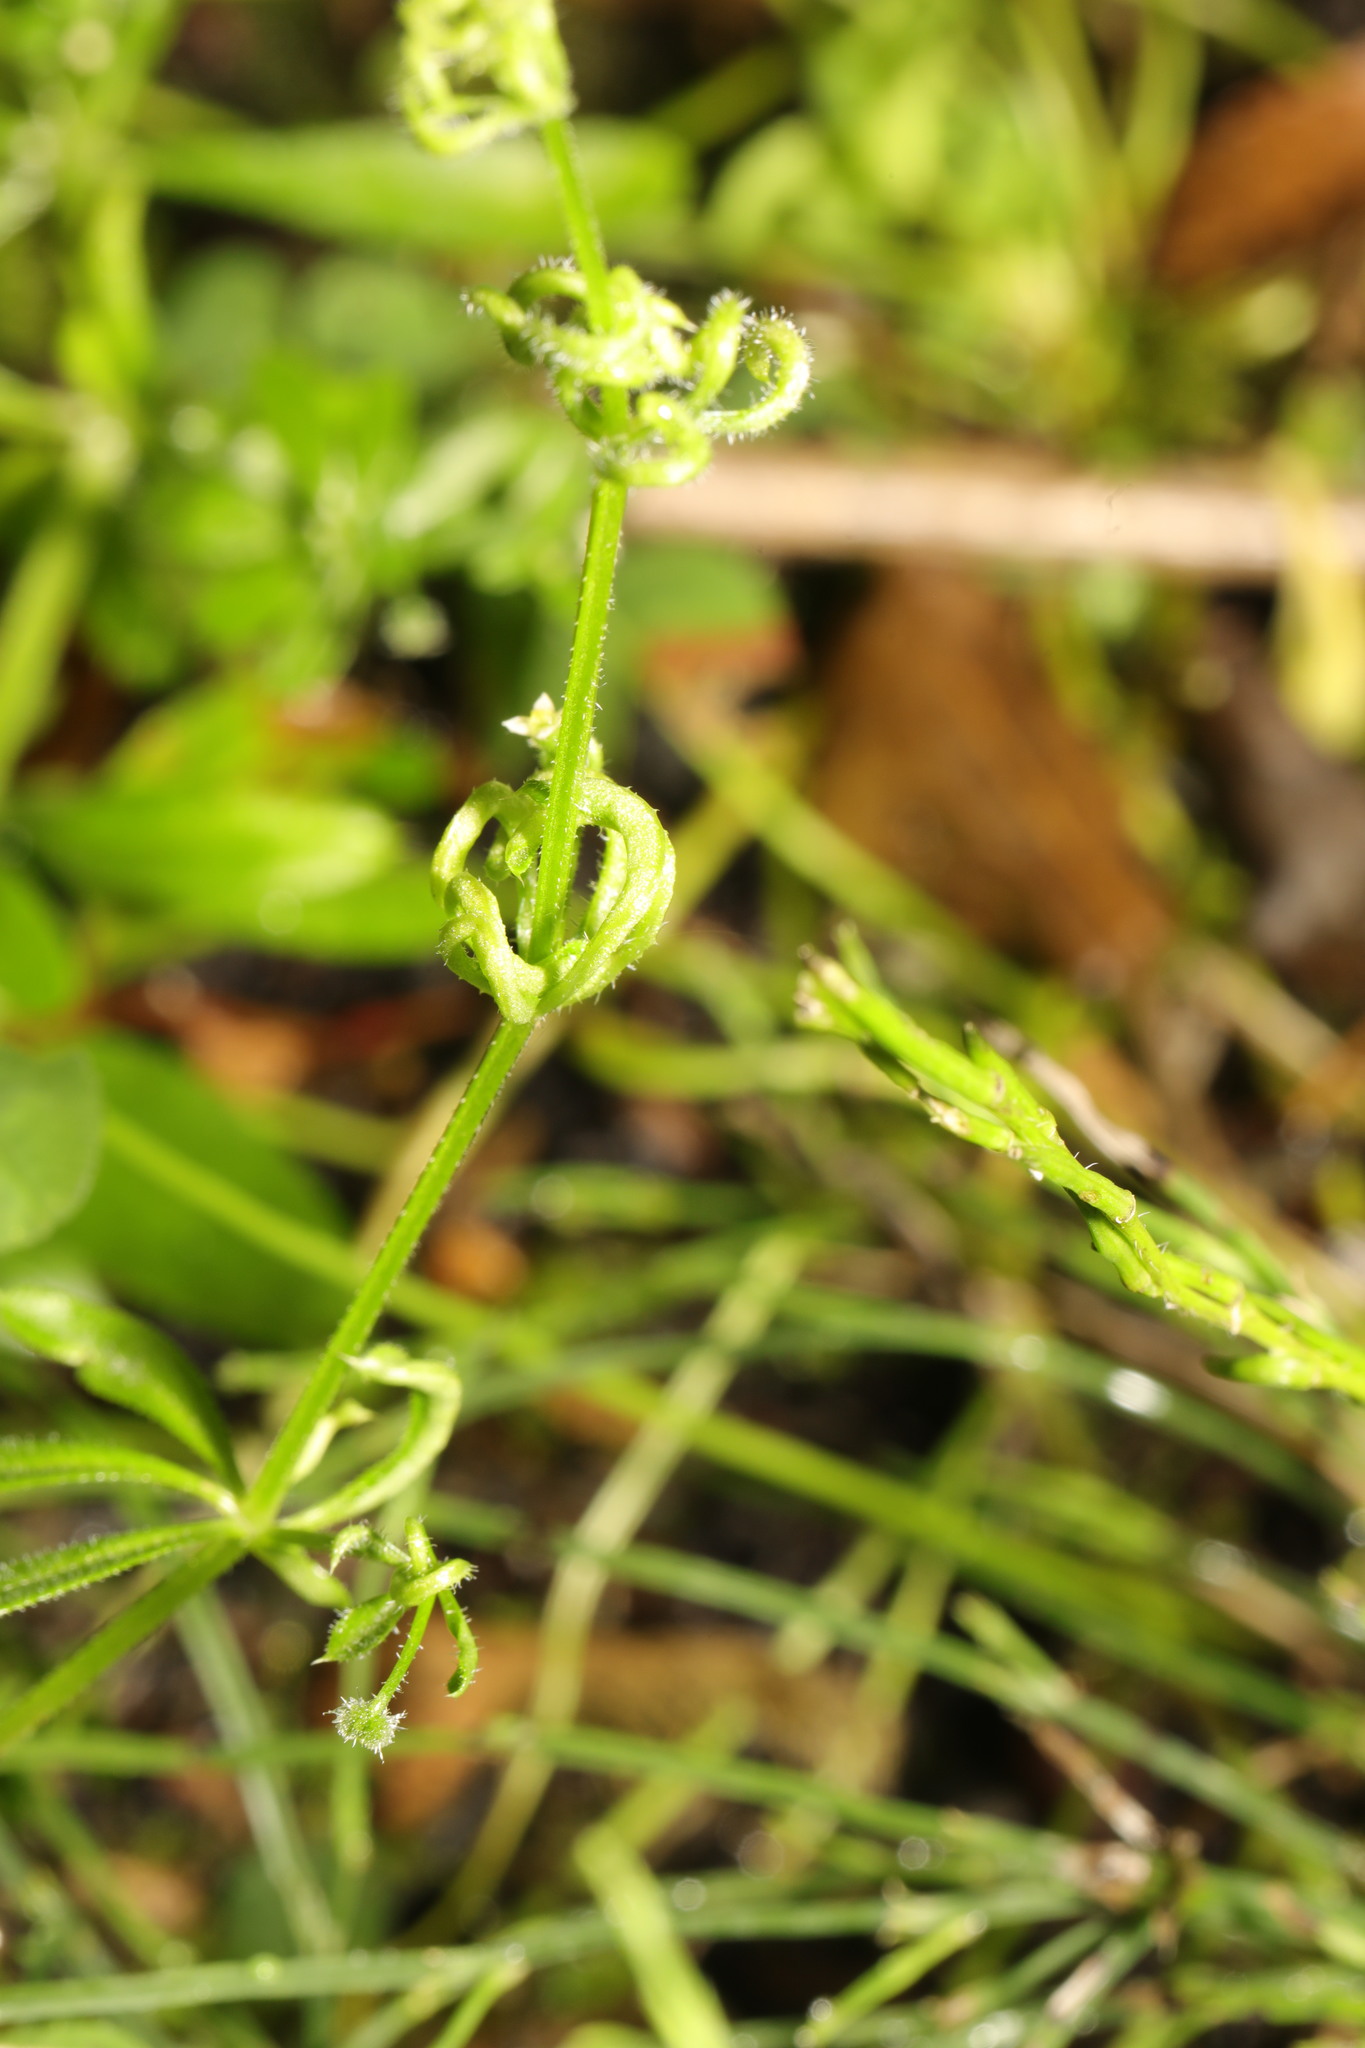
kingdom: Animalia
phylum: Arthropoda
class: Arachnida
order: Trombidiformes
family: Eriophyidae
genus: Cecidophyes
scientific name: Cecidophyes rouhollahi
